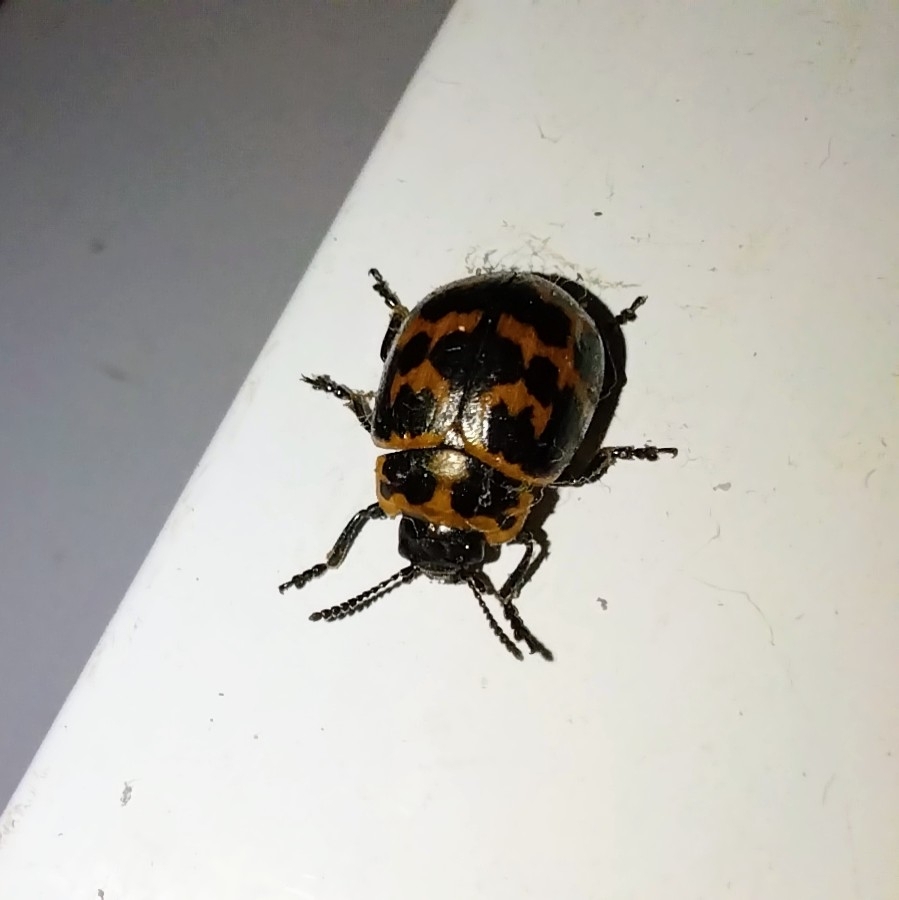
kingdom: Animalia
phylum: Arthropoda
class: Insecta
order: Coleoptera
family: Chrysomelidae
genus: Platyphora
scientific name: Platyphora
